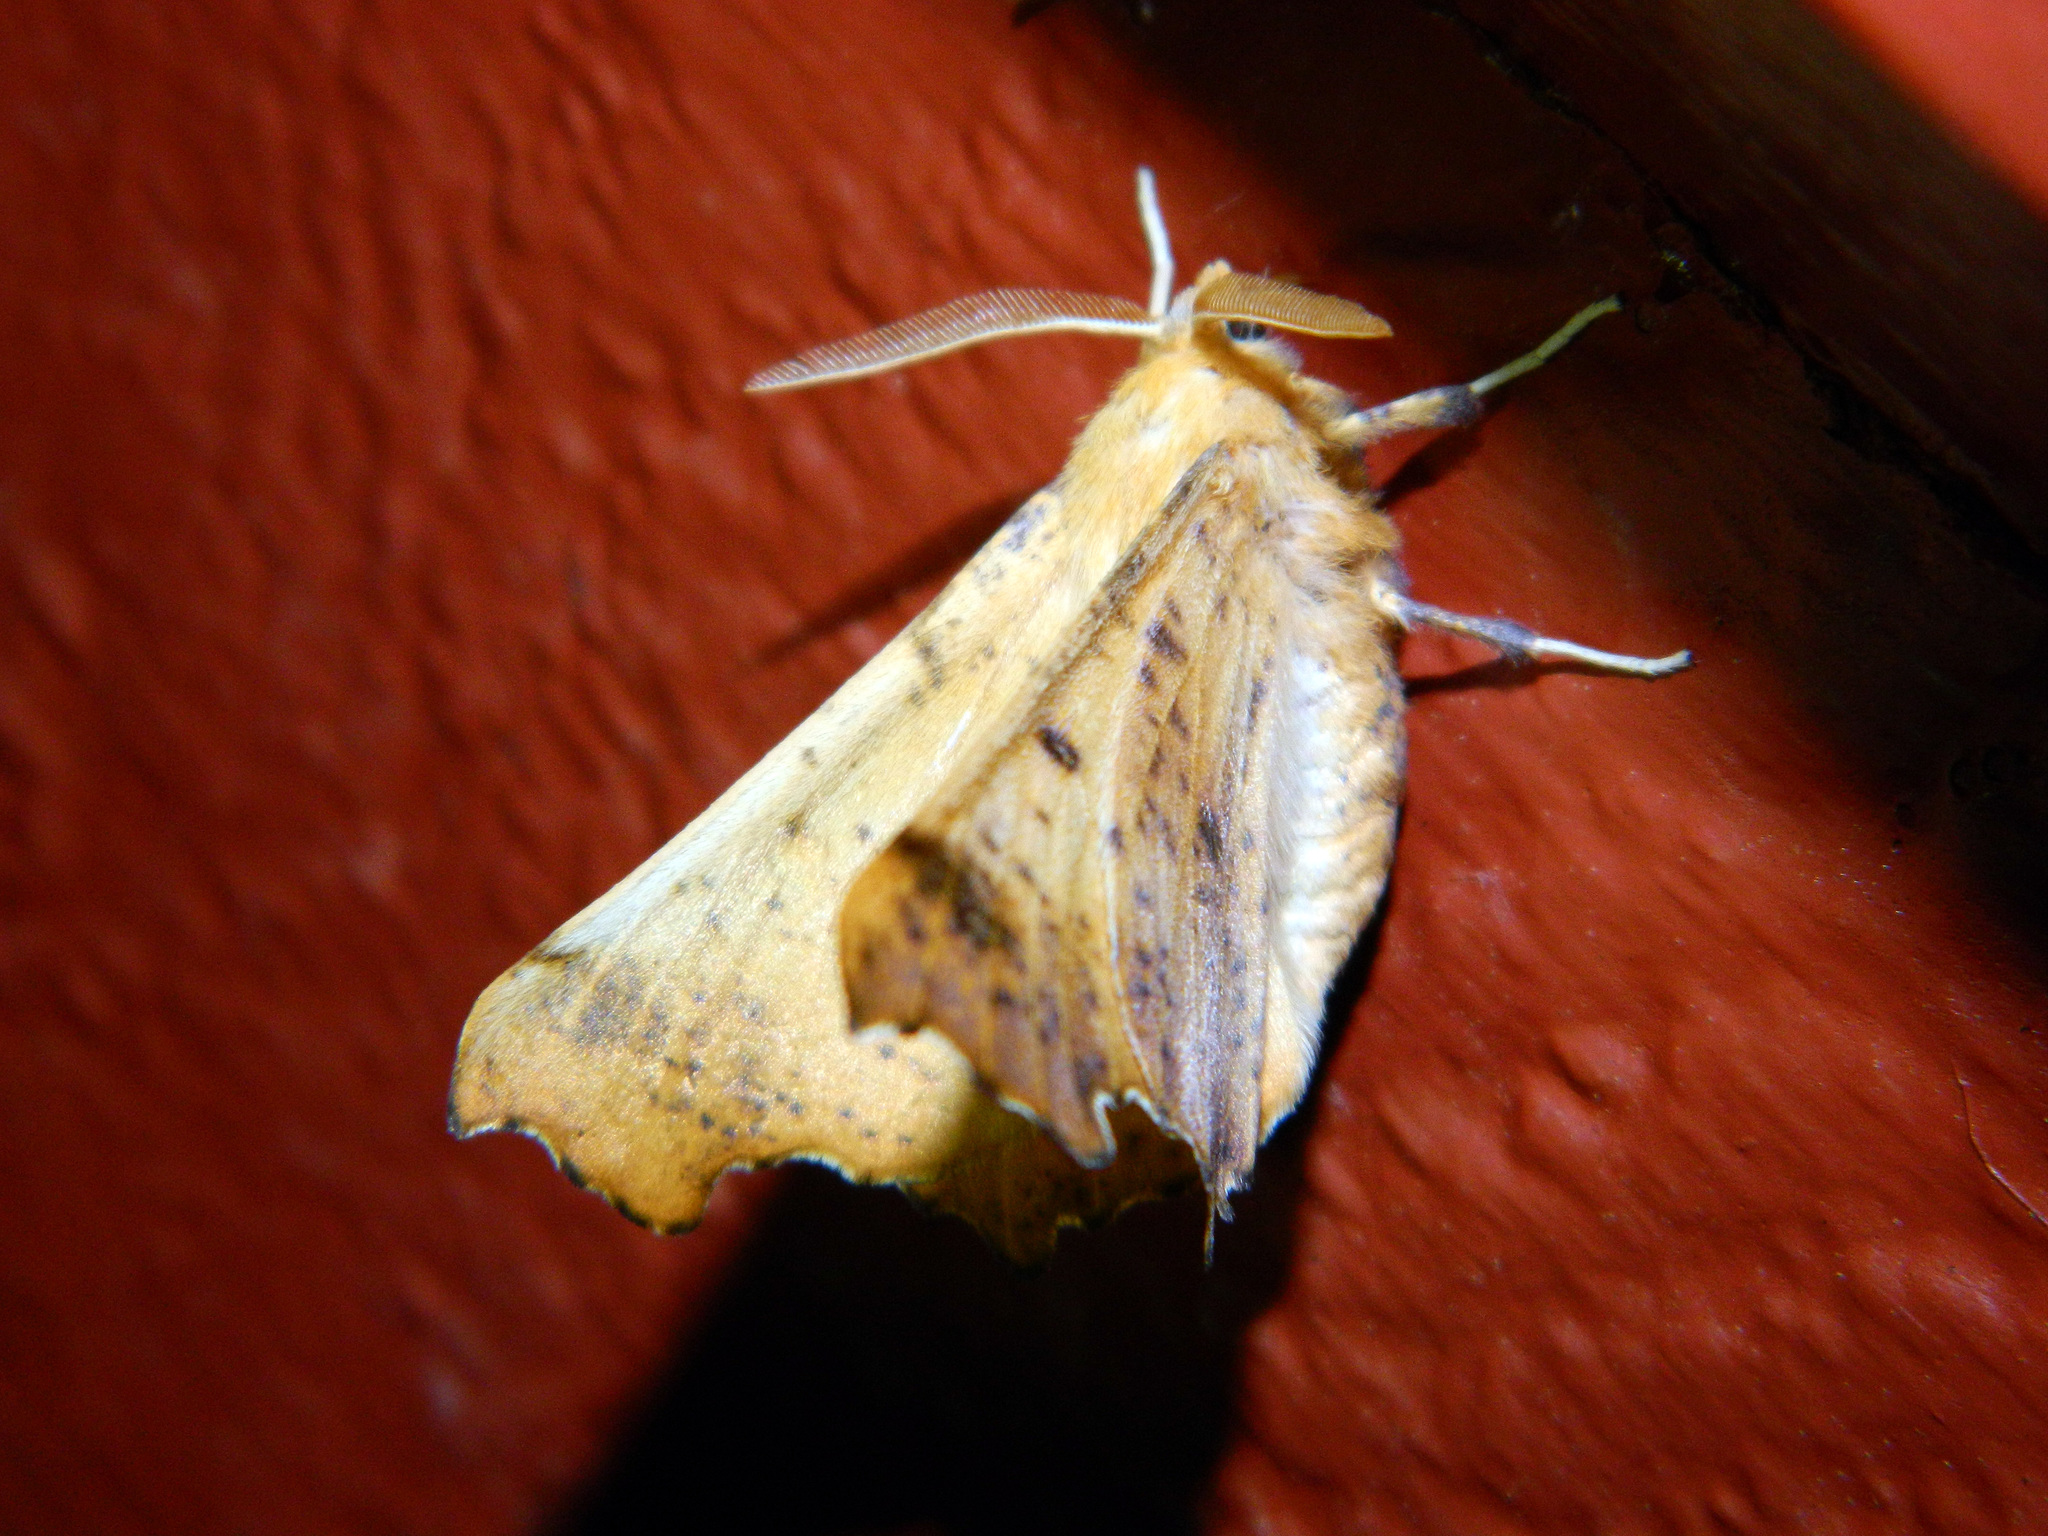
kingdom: Animalia
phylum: Arthropoda
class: Insecta
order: Lepidoptera
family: Geometridae
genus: Ennomos
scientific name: Ennomos magnaria
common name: Maple spanworm
